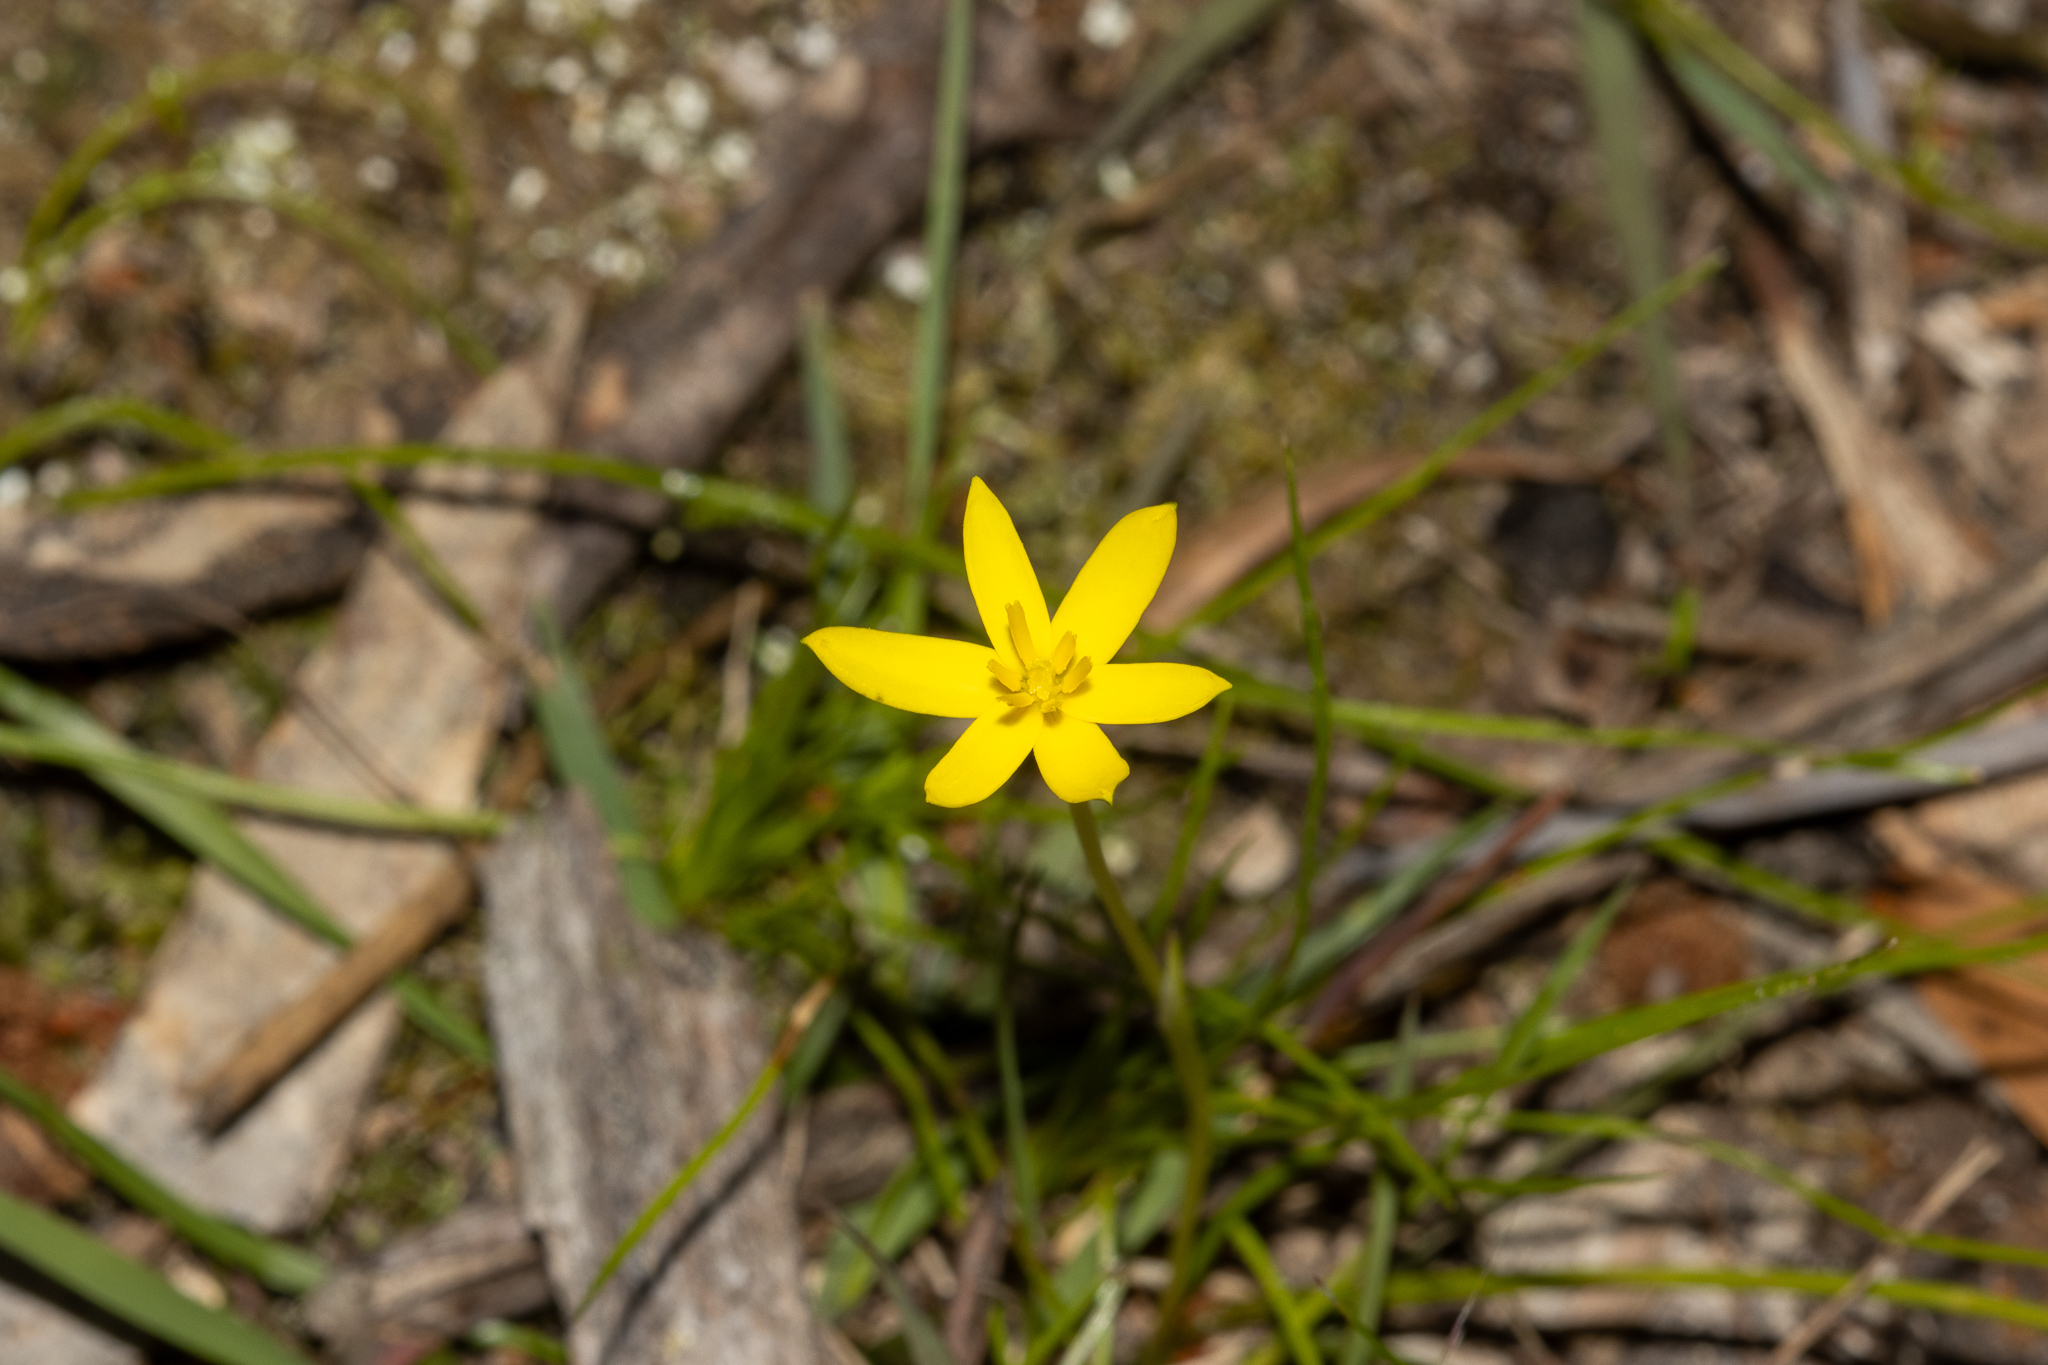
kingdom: Plantae
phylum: Tracheophyta
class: Liliopsida
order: Asparagales
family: Hypoxidaceae
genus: Pauridia
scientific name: Pauridia vaginata
